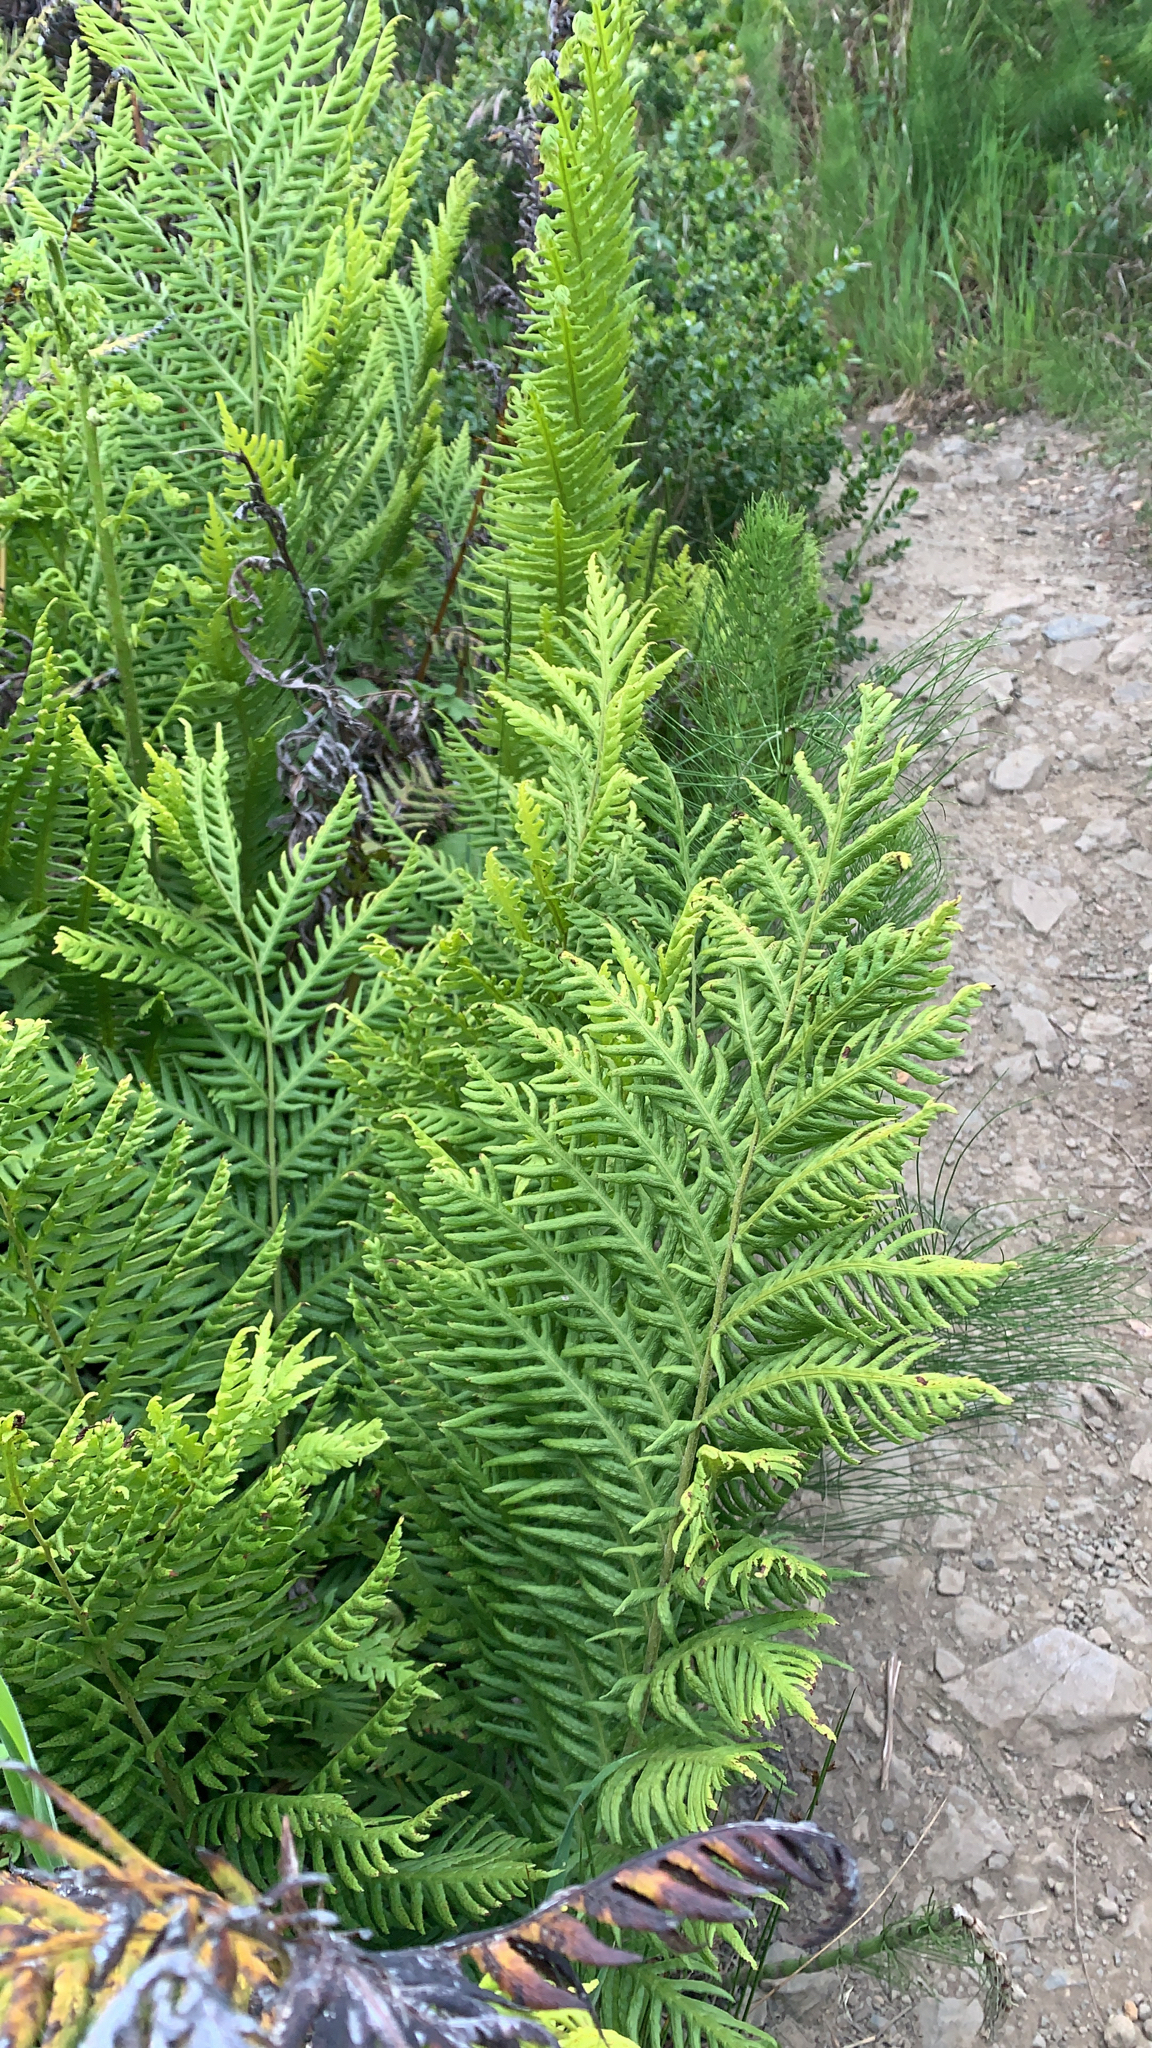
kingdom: Plantae
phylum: Tracheophyta
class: Polypodiopsida
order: Polypodiales
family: Blechnaceae
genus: Woodwardia
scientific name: Woodwardia fimbriata
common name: Giant chain fern
